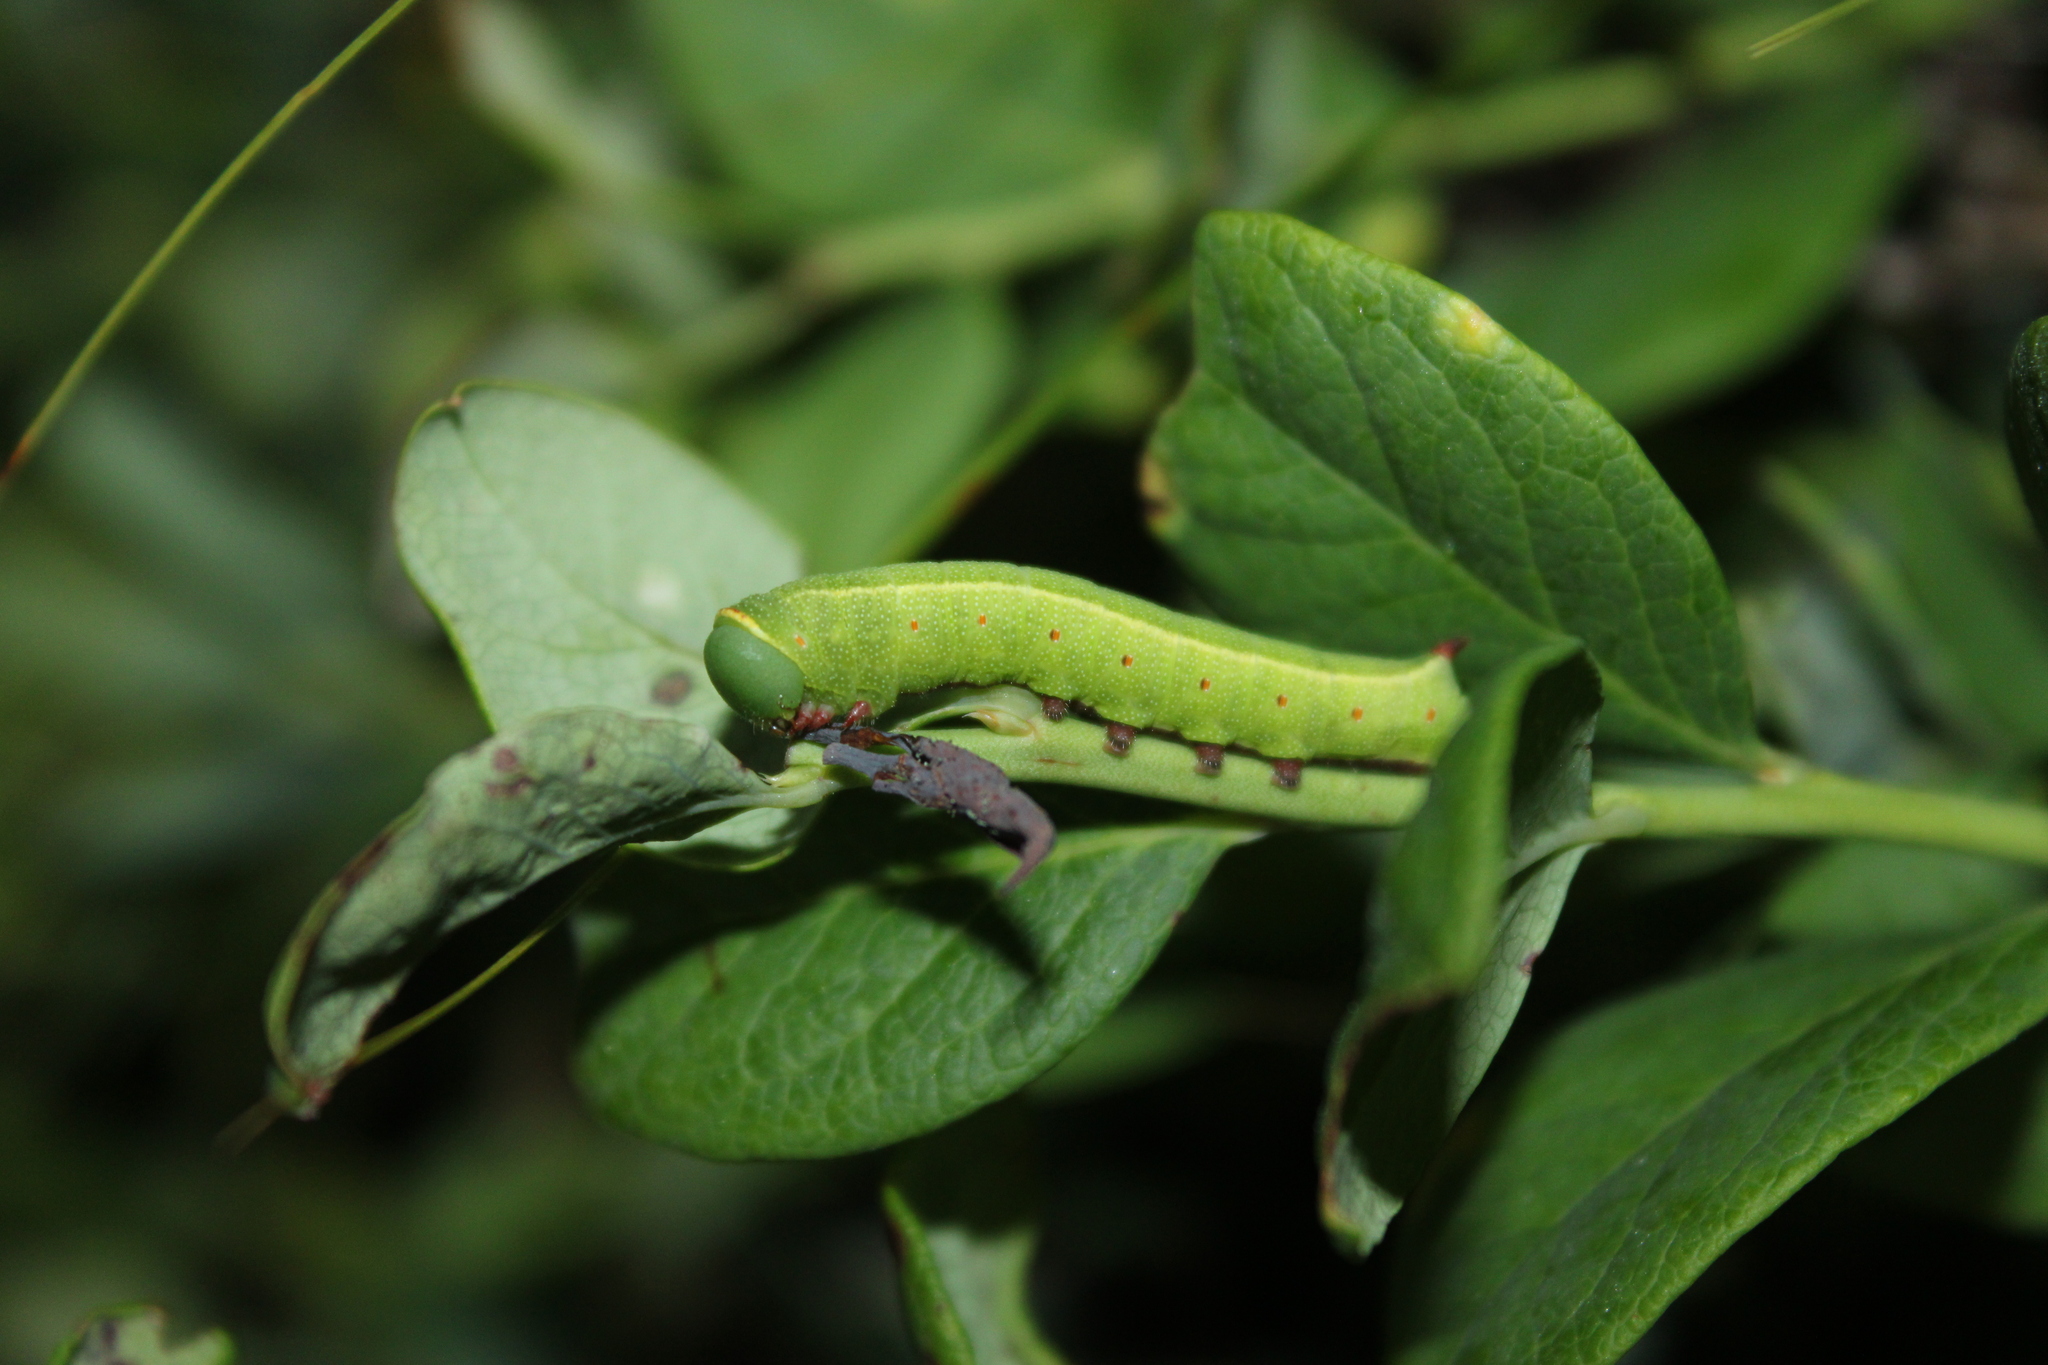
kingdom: Animalia
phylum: Arthropoda
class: Insecta
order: Lepidoptera
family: Sphingidae
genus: Hemaris
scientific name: Hemaris gracilis
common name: Graceful clearwing
